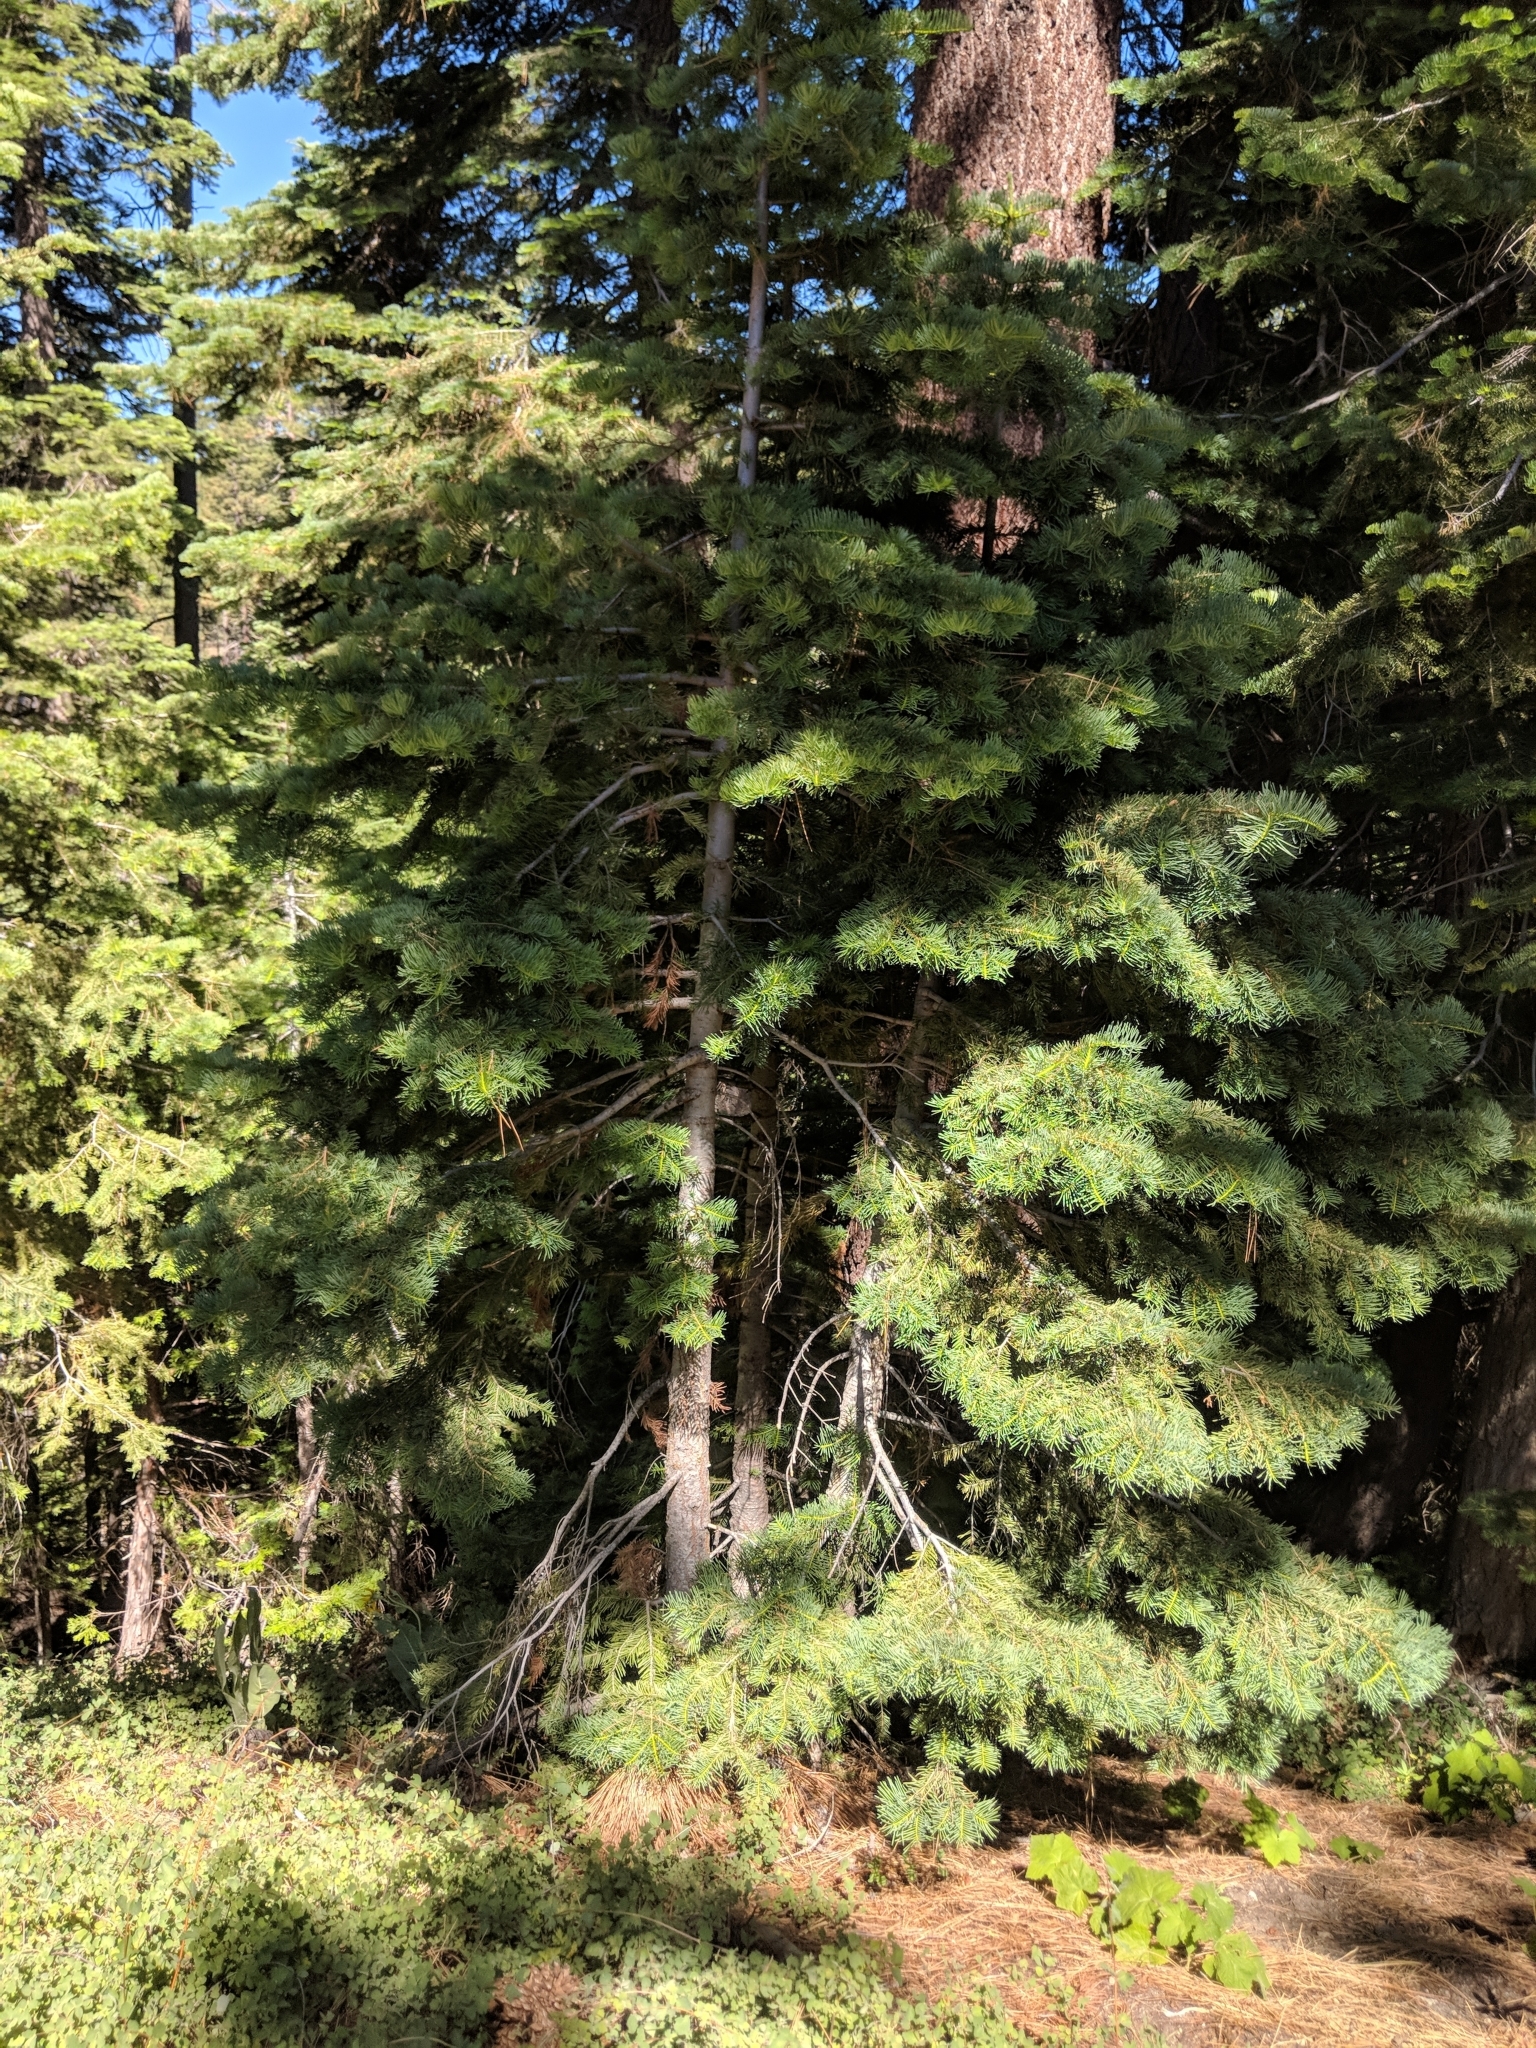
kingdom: Plantae
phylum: Tracheophyta
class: Pinopsida
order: Pinales
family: Pinaceae
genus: Abies
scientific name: Abies concolor
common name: Colorado fir
